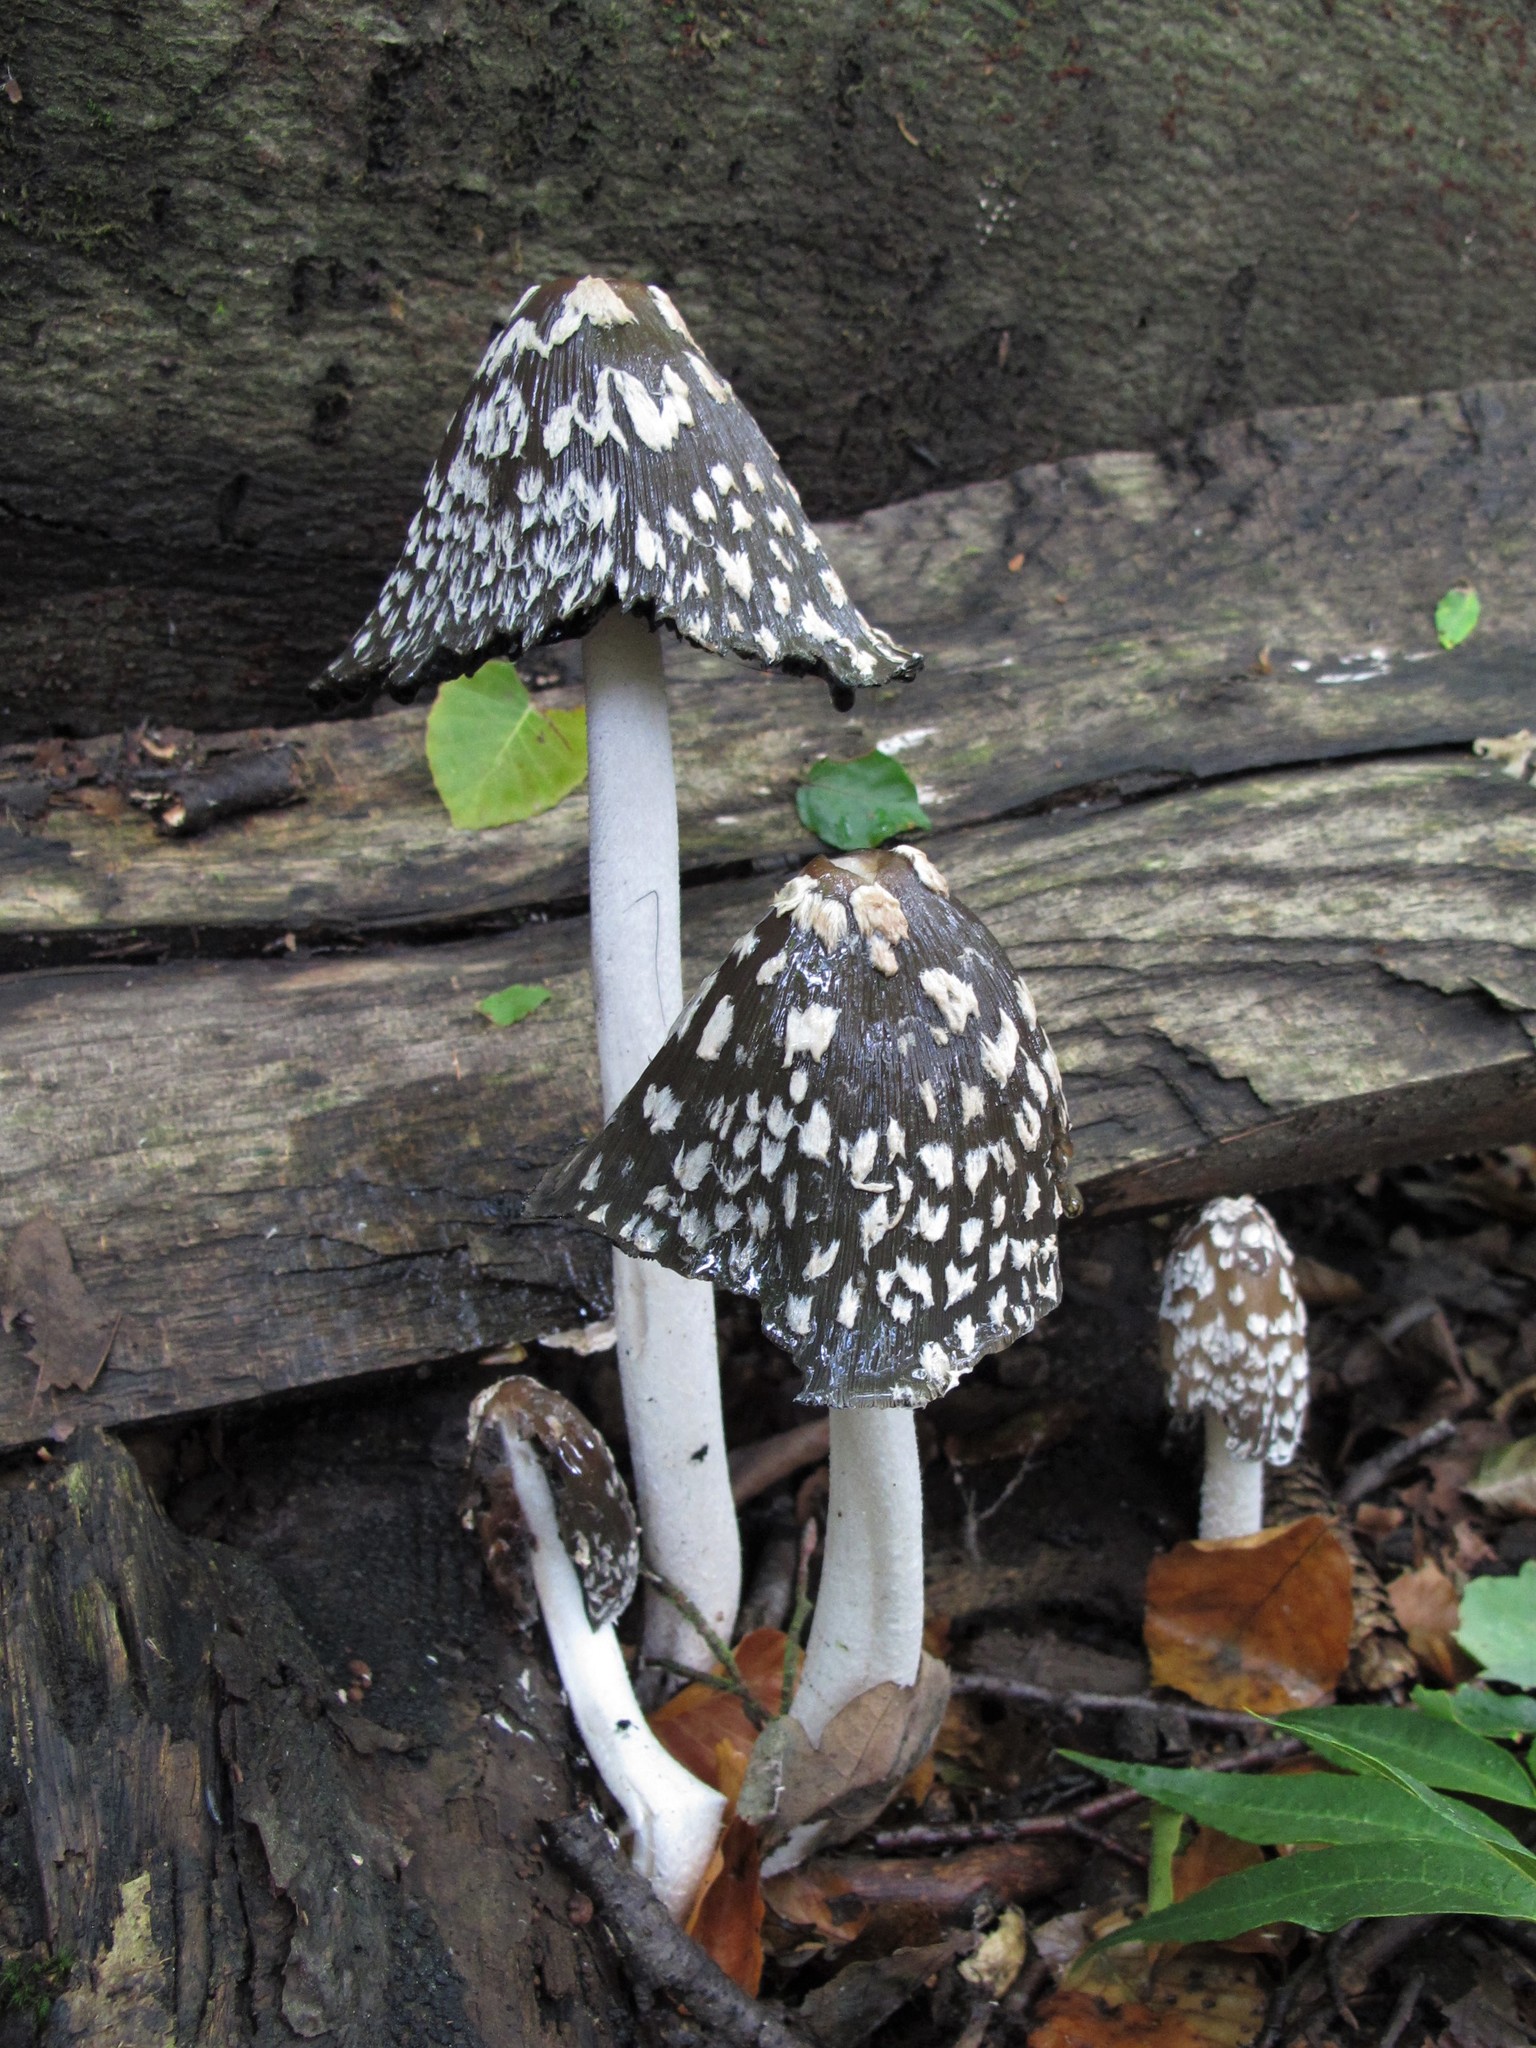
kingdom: Fungi
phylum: Basidiomycota
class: Agaricomycetes
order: Agaricales
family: Psathyrellaceae
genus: Coprinopsis
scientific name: Coprinopsis picacea
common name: Magpie inkcap
